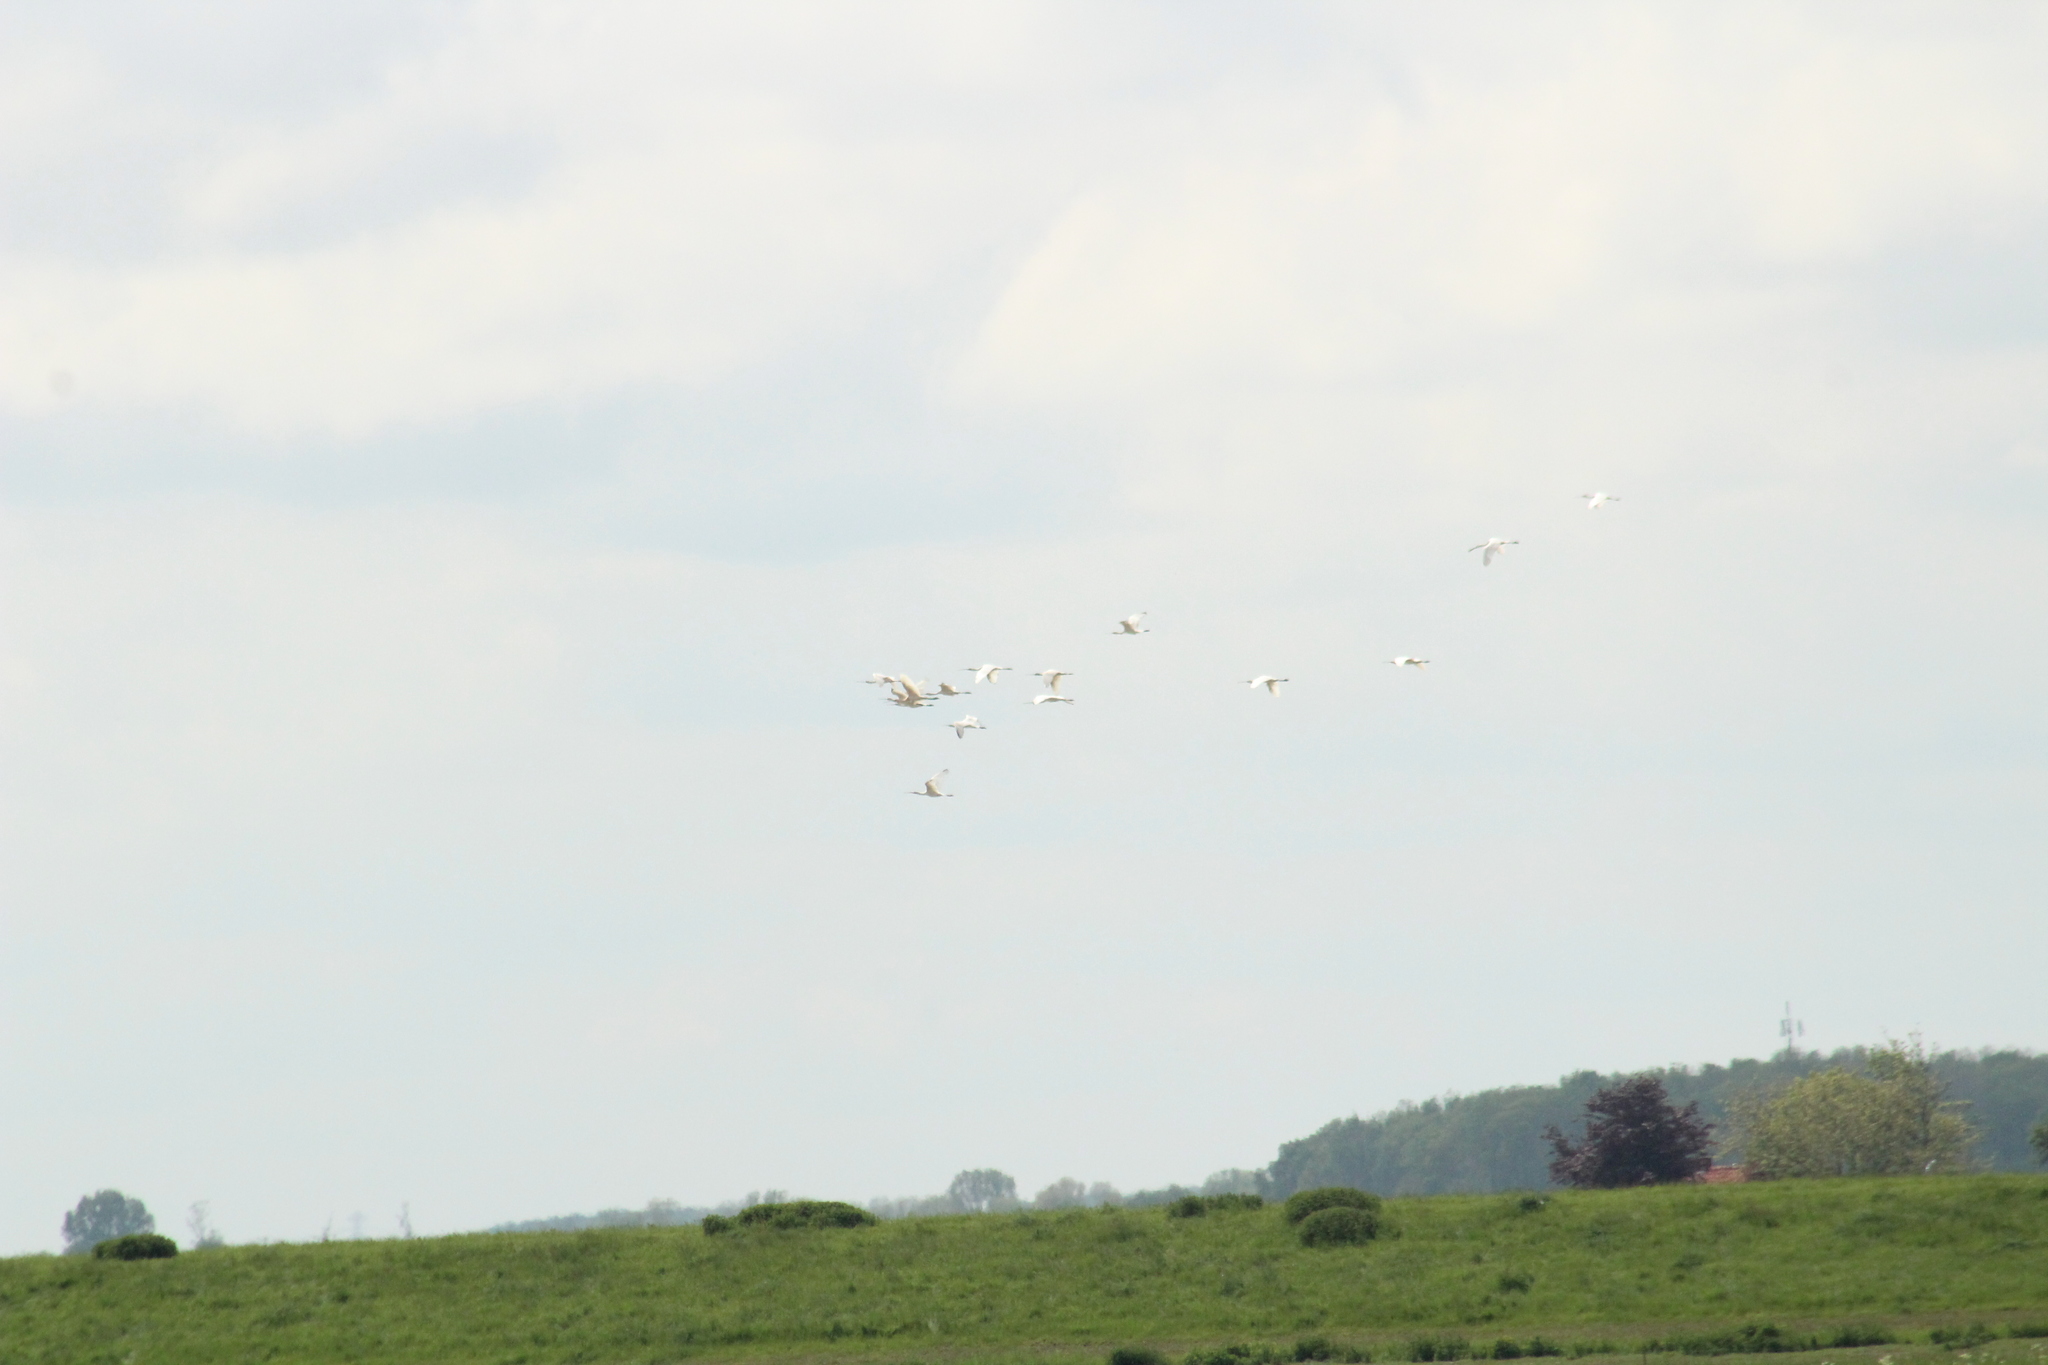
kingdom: Animalia
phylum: Chordata
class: Aves
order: Pelecaniformes
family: Threskiornithidae
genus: Platalea
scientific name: Platalea leucorodia
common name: Eurasian spoonbill
